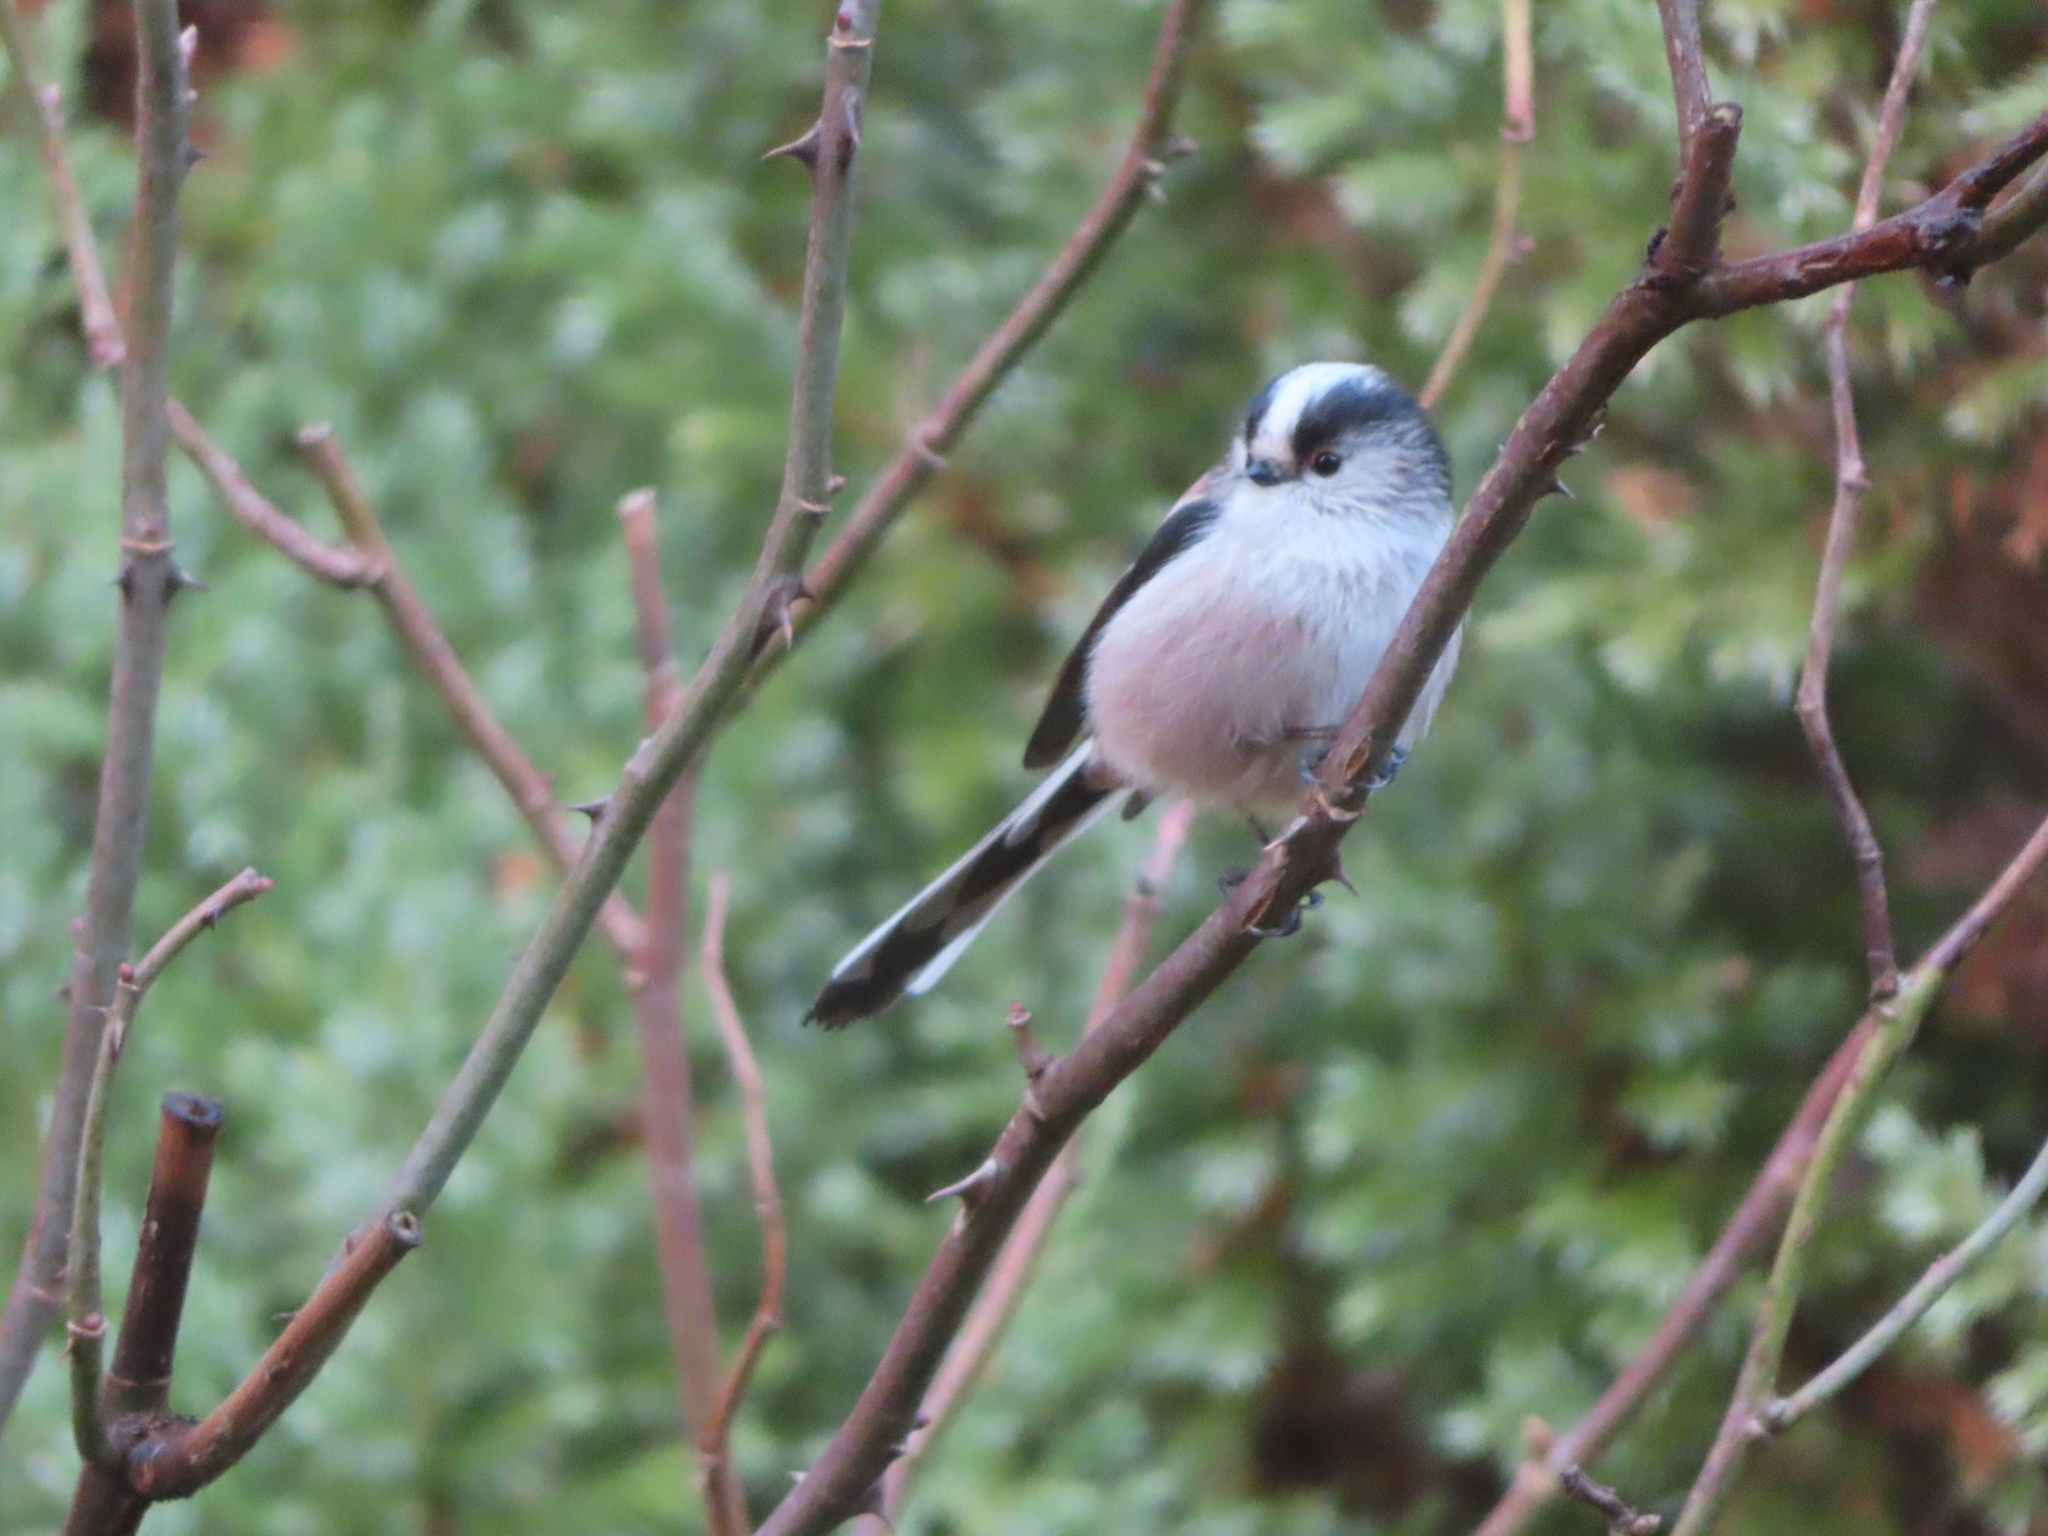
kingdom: Animalia
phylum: Chordata
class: Aves
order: Passeriformes
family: Aegithalidae
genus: Aegithalos
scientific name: Aegithalos caudatus
